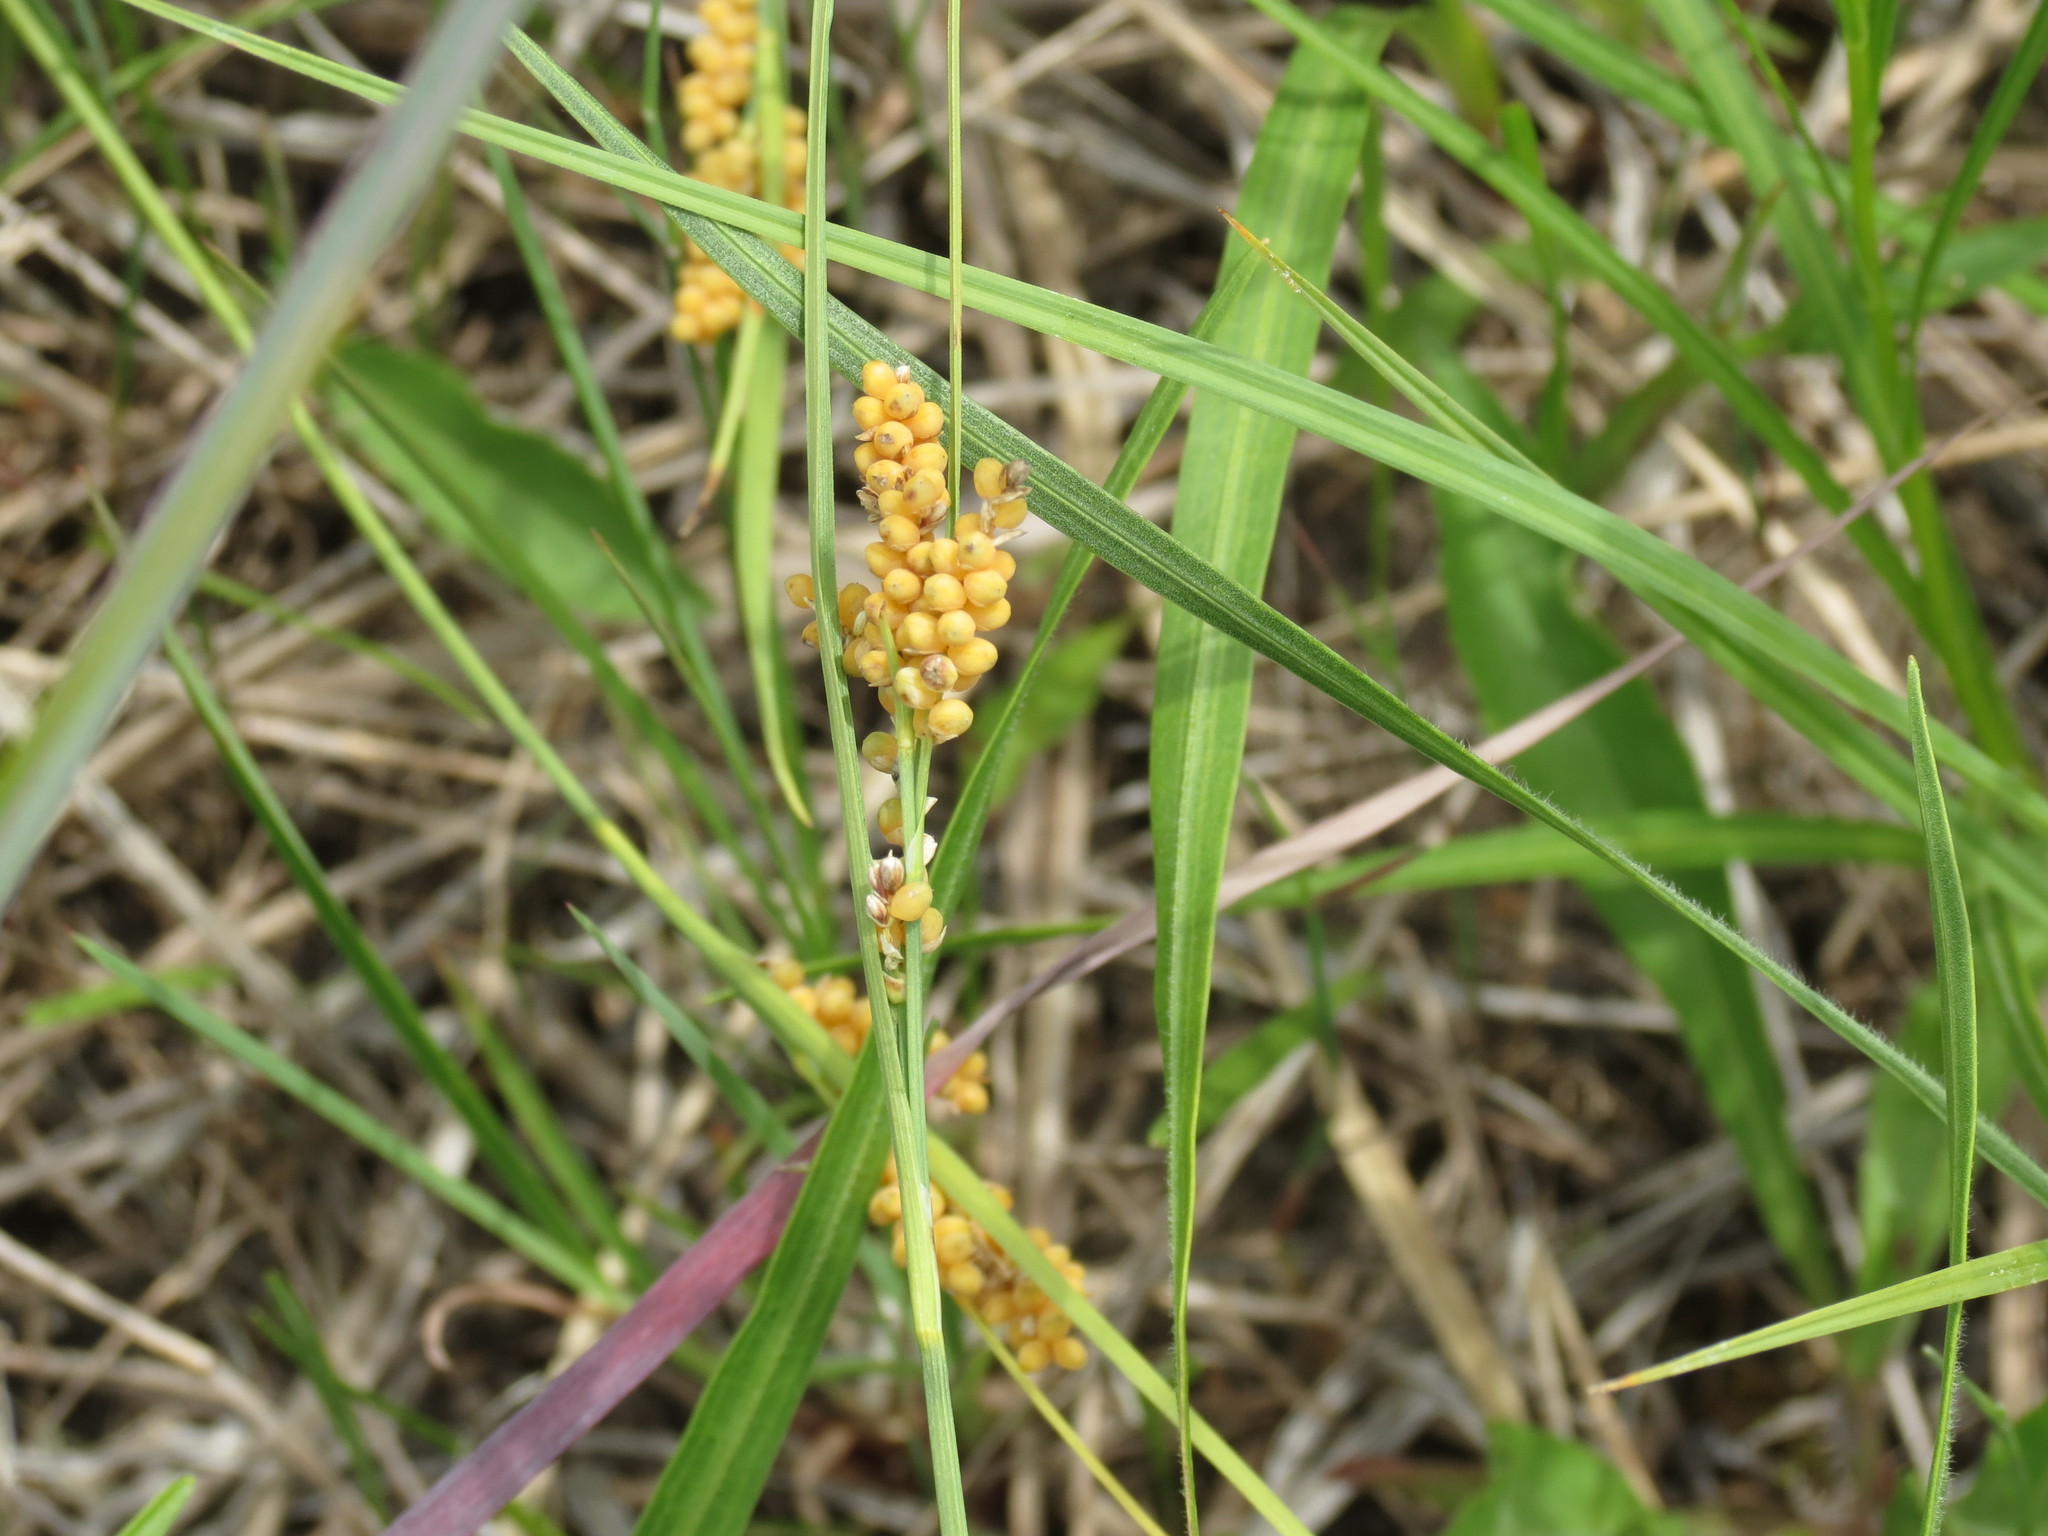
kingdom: Plantae
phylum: Tracheophyta
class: Liliopsida
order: Poales
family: Cyperaceae
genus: Carex
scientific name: Carex aurea
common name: Golden sedge
